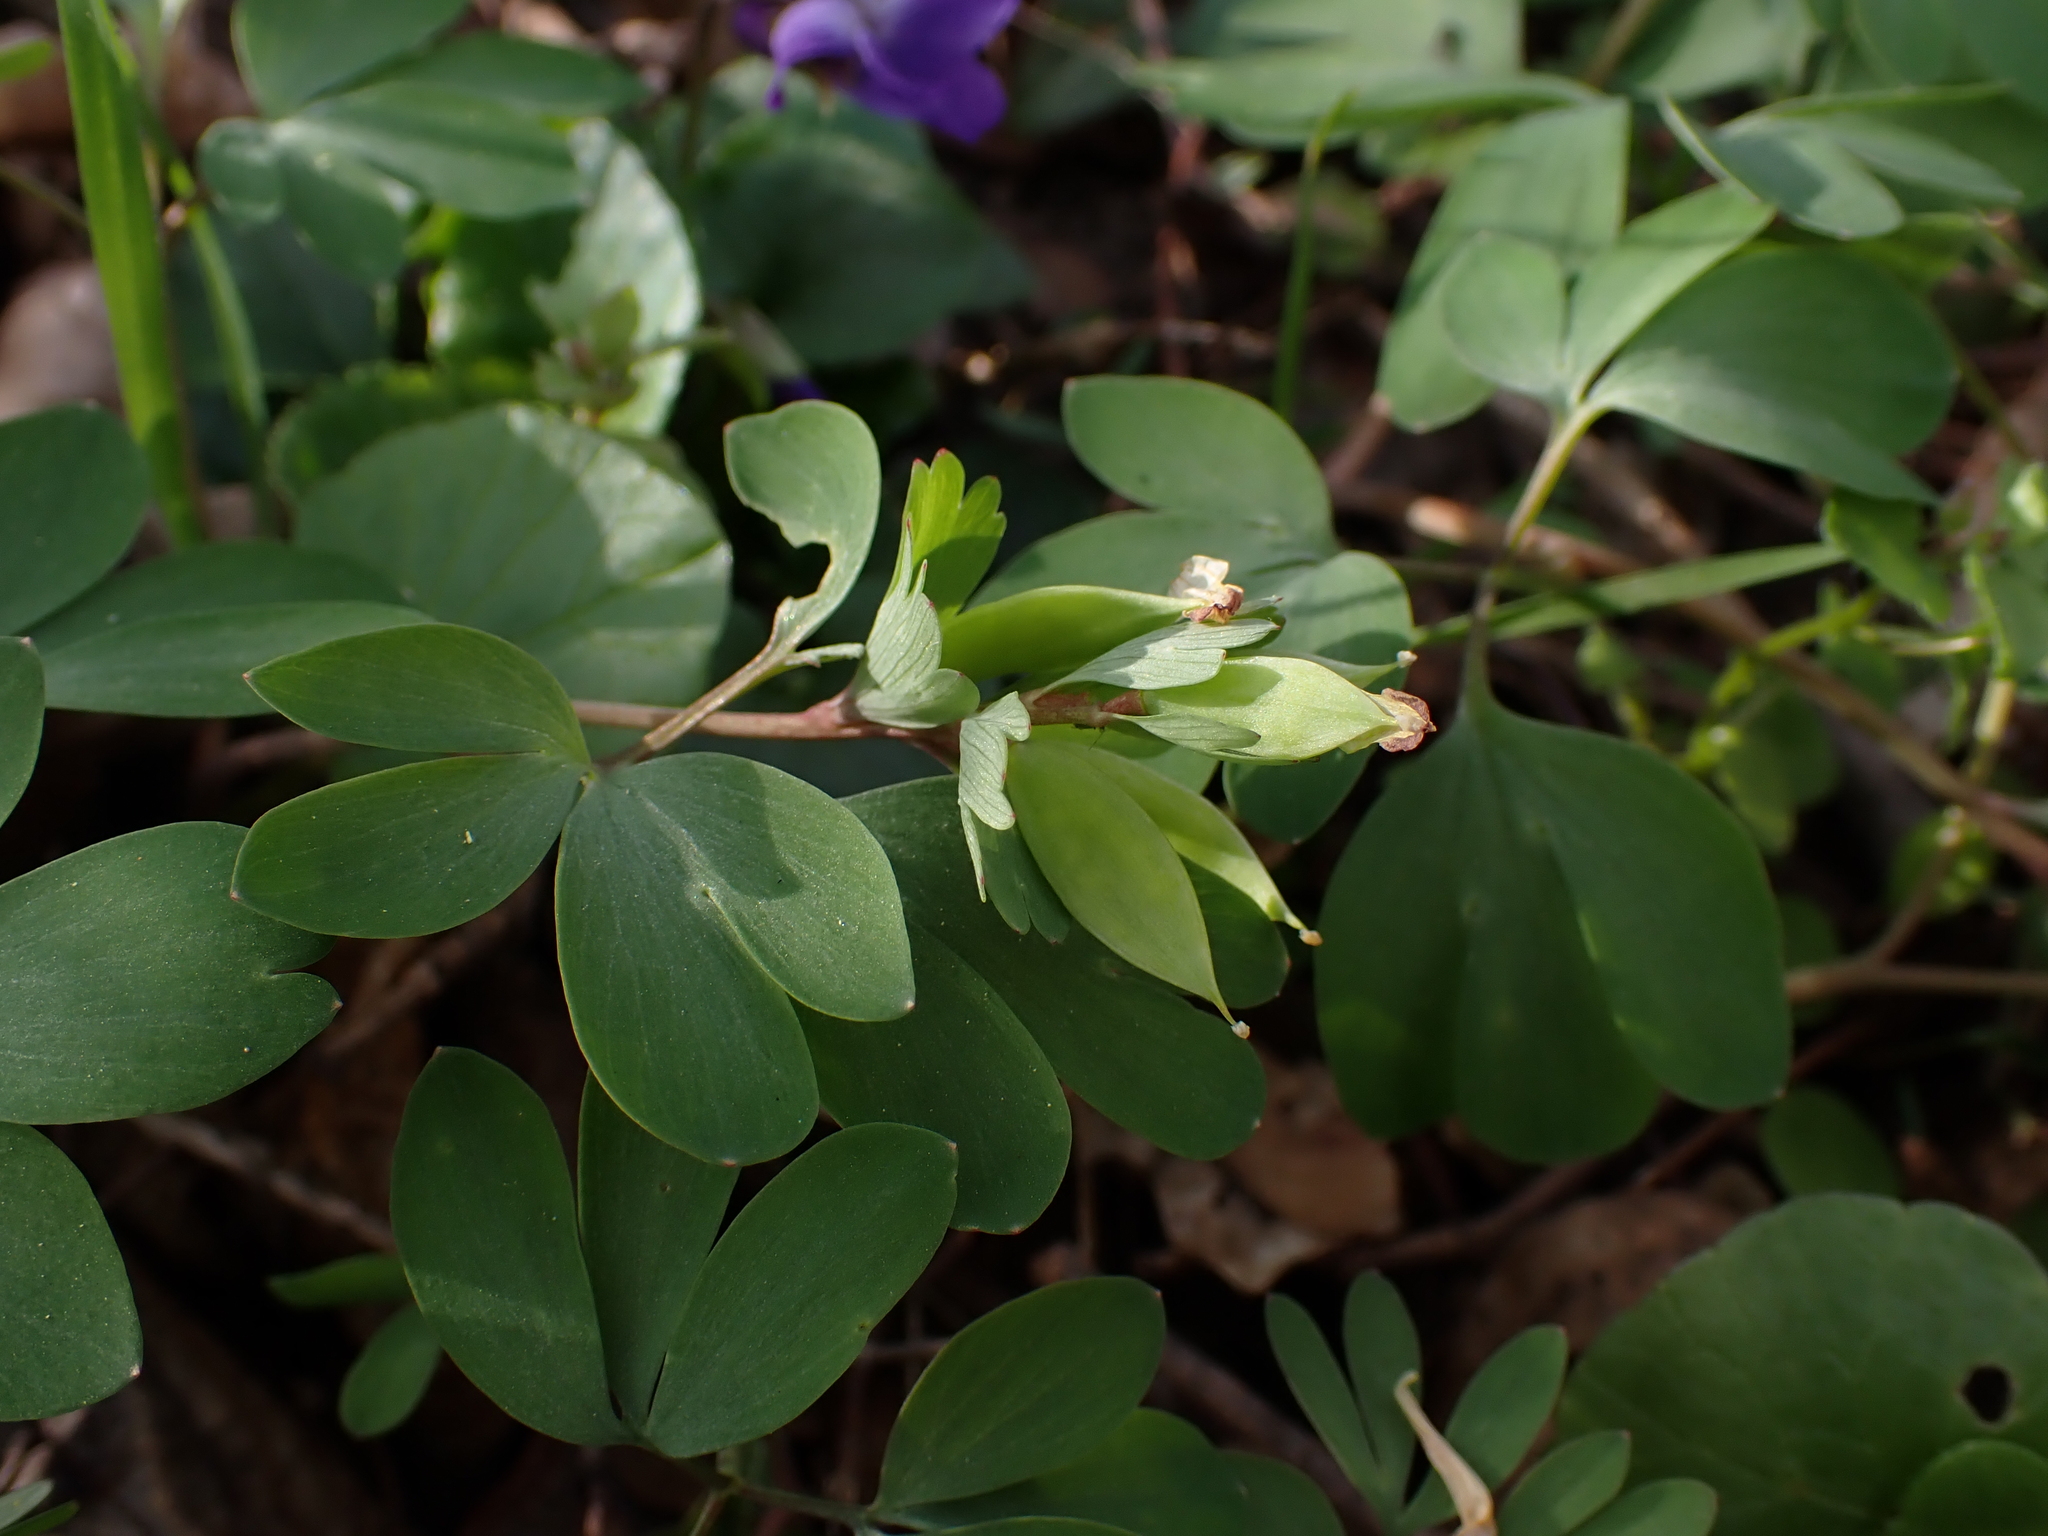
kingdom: Plantae
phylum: Tracheophyta
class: Magnoliopsida
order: Ranunculales
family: Papaveraceae
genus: Corydalis
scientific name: Corydalis pumila
